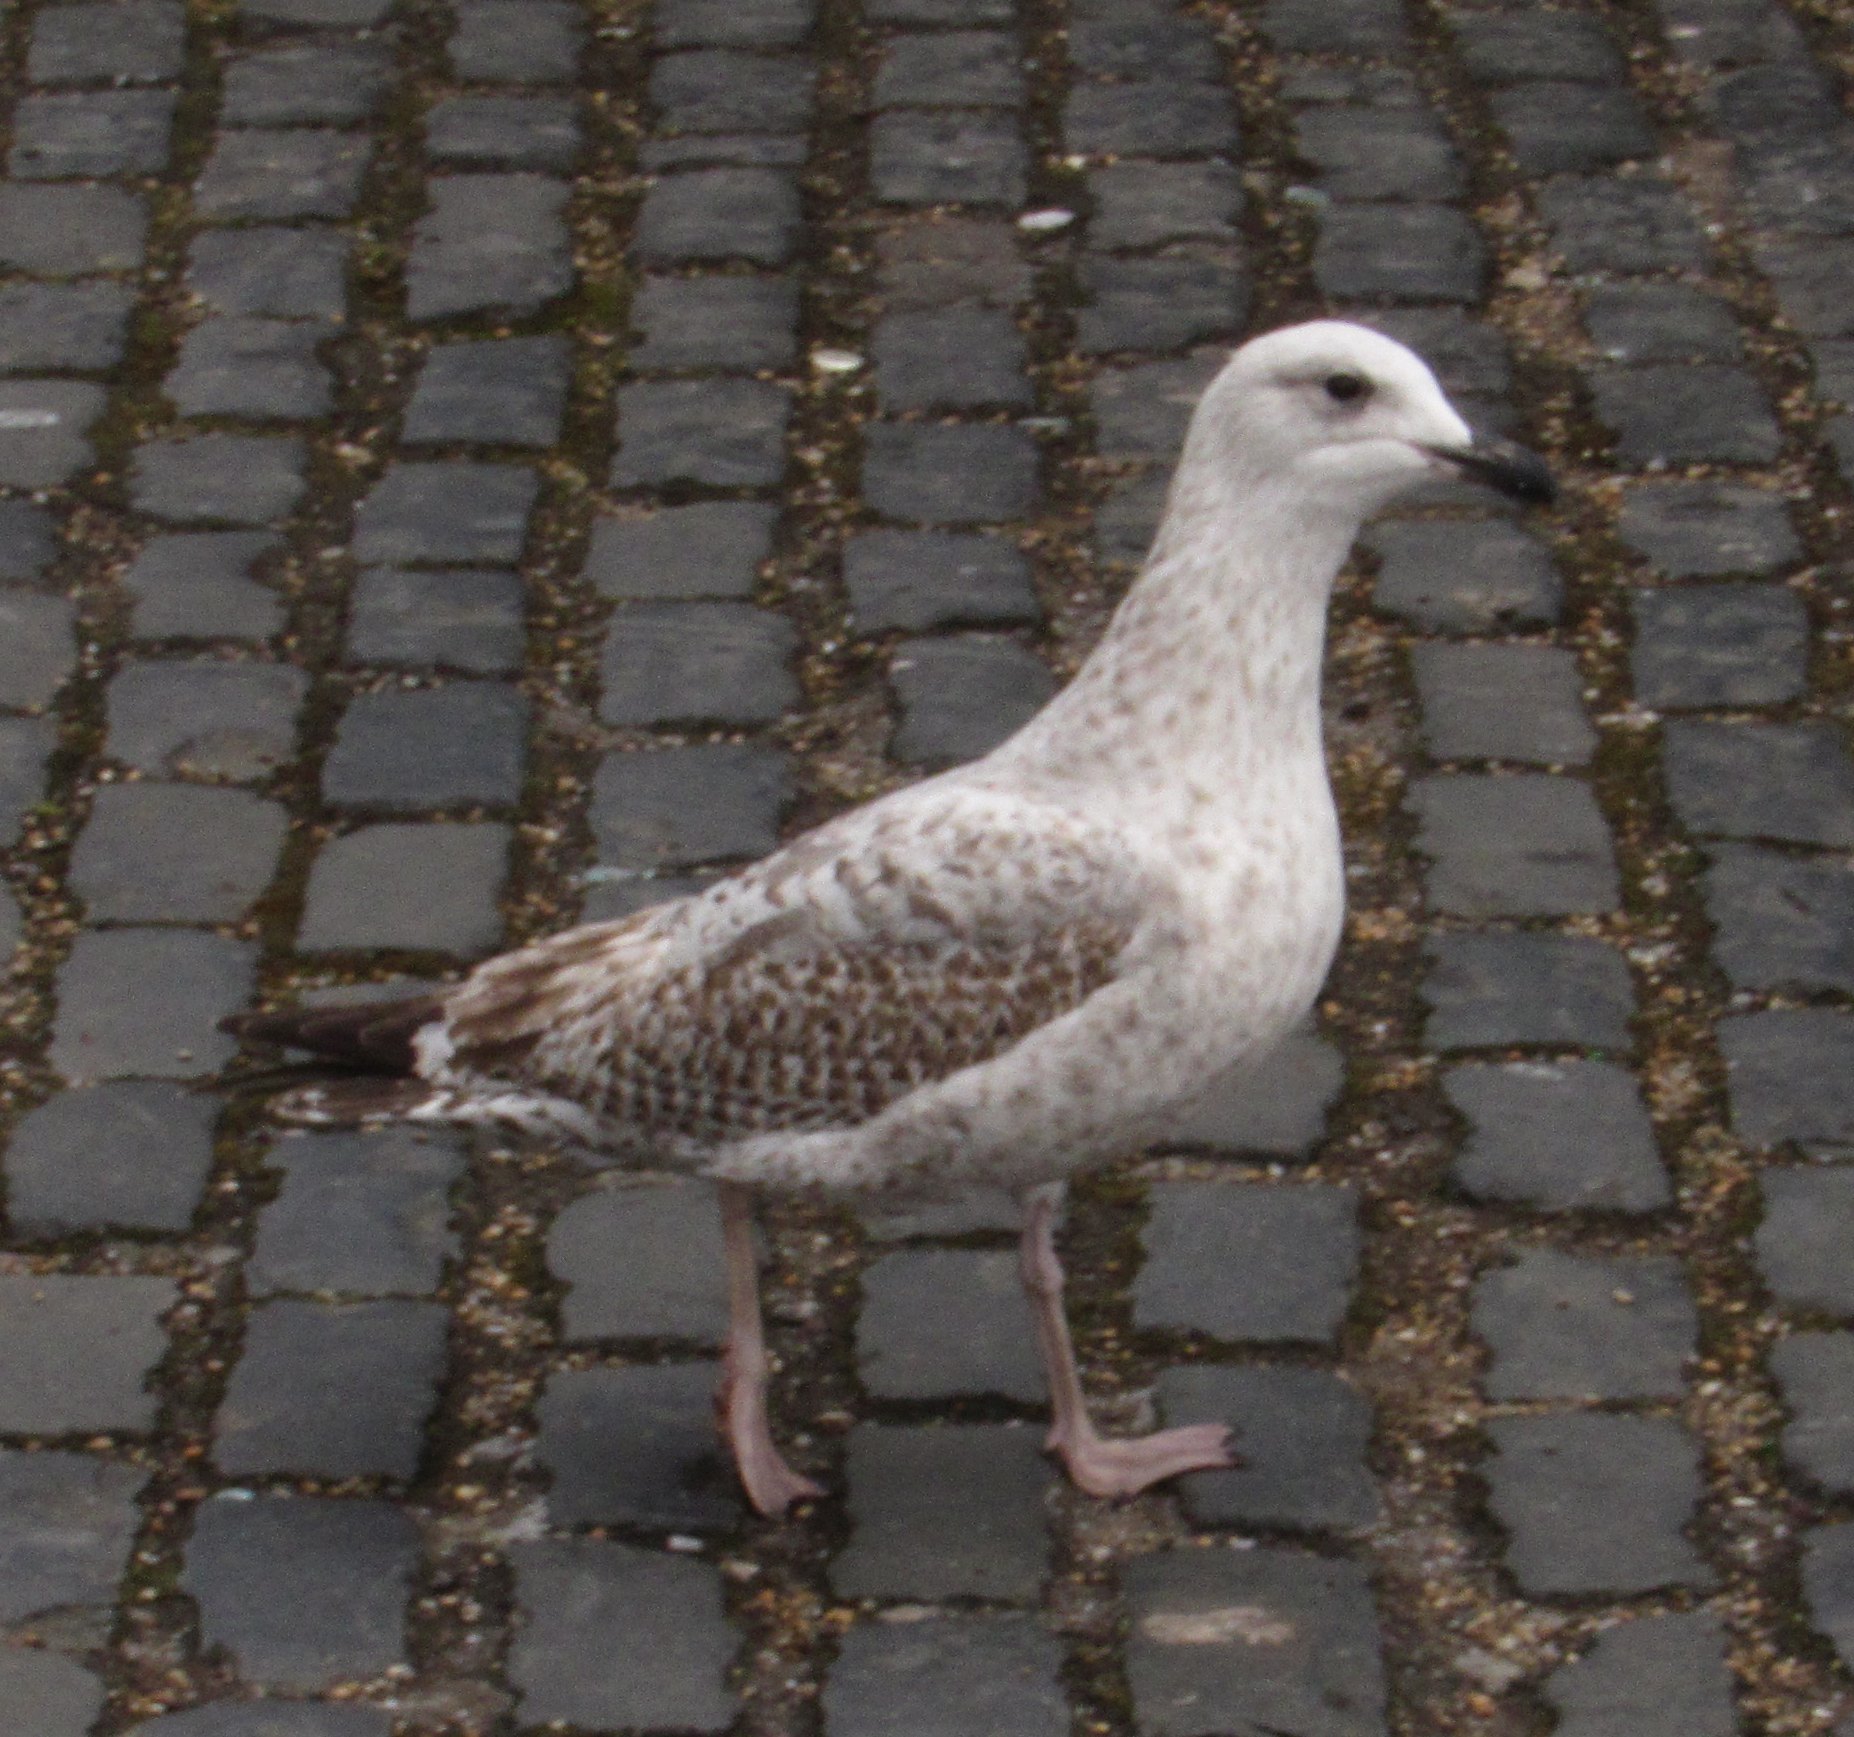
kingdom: Animalia
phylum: Chordata
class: Aves
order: Charadriiformes
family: Laridae
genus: Larus
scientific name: Larus argentatus
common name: Herring gull
